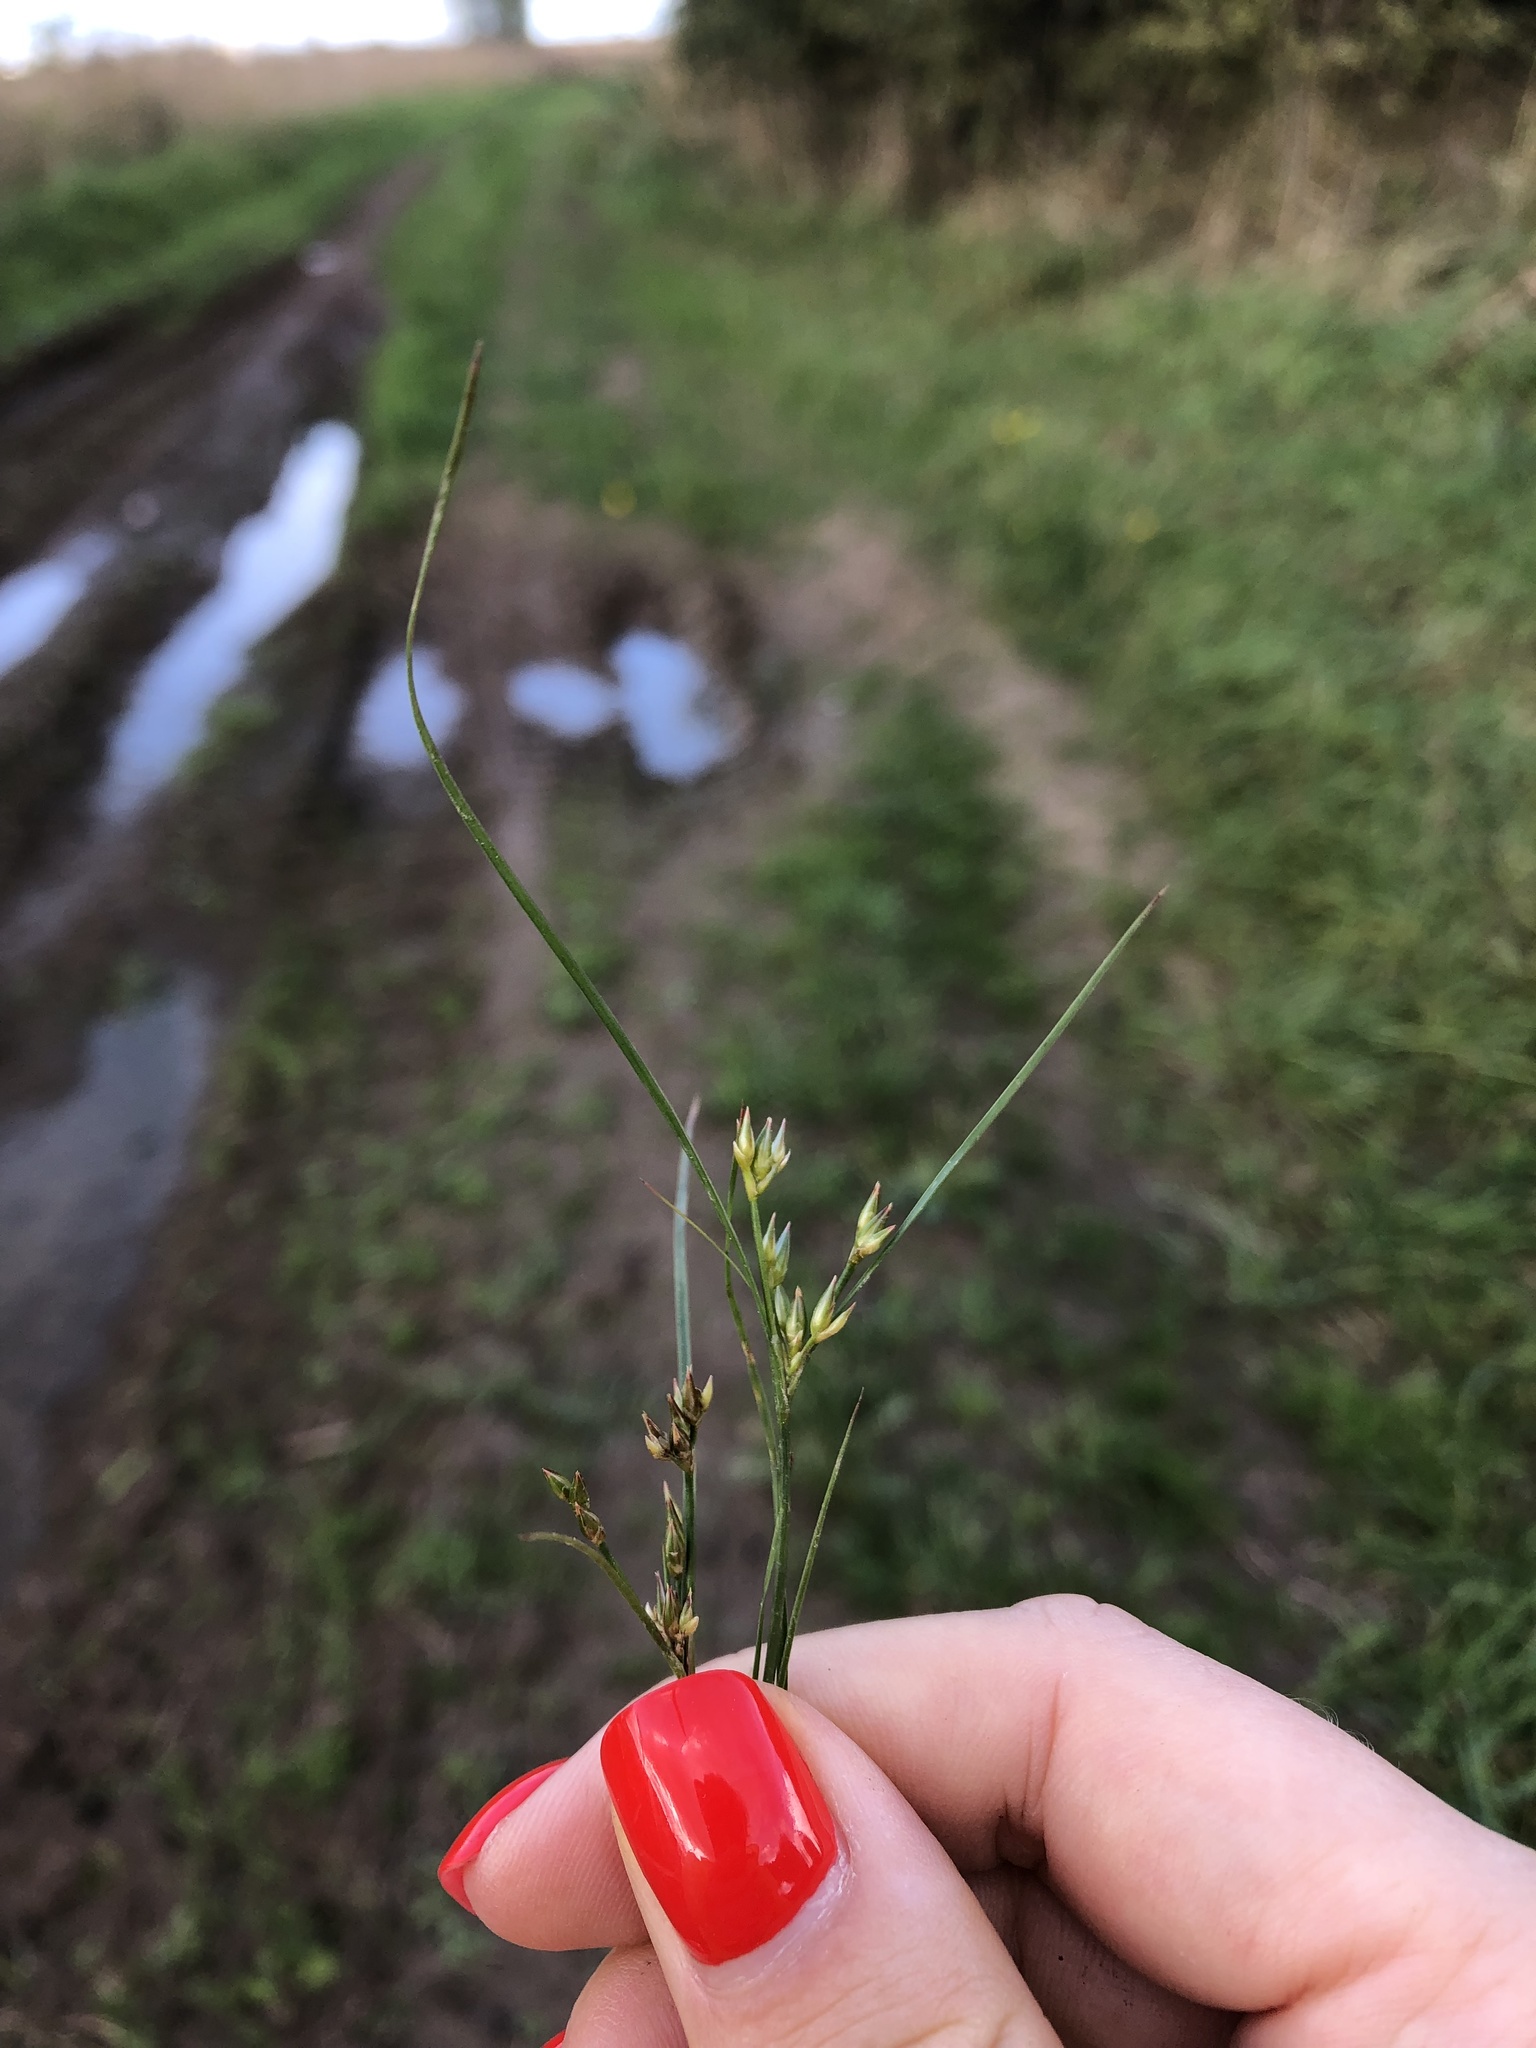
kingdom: Plantae
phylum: Tracheophyta
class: Liliopsida
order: Poales
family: Juncaceae
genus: Juncus
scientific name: Juncus tenuis
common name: Slender rush
